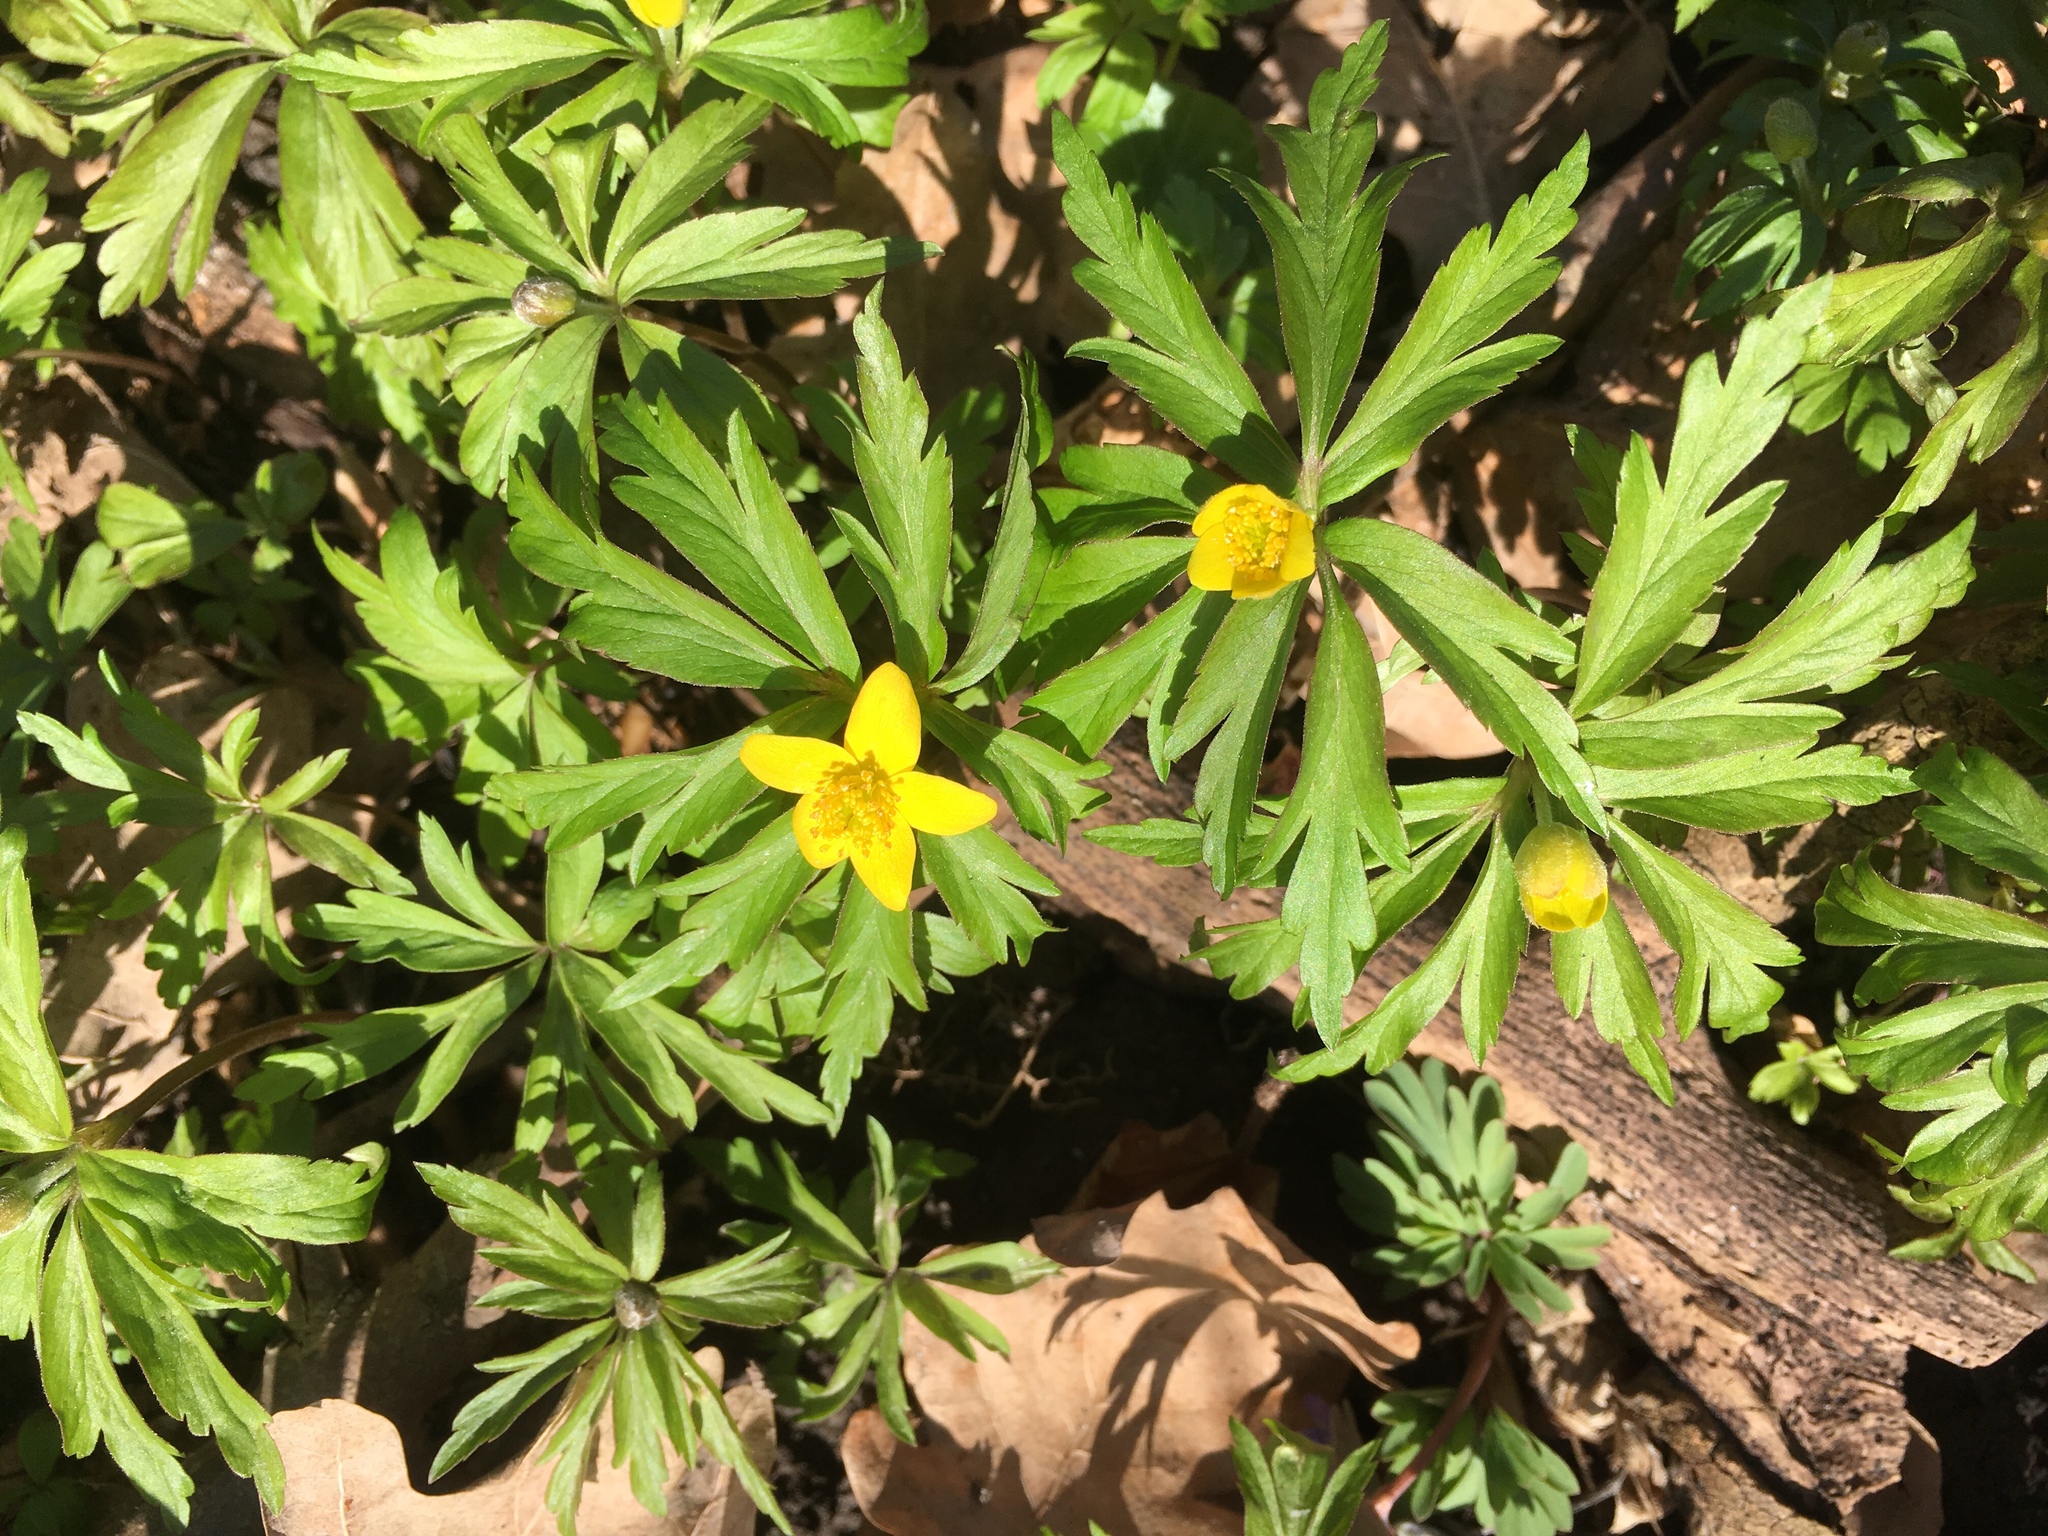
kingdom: Plantae
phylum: Tracheophyta
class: Magnoliopsida
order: Ranunculales
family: Ranunculaceae
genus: Anemone
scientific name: Anemone ranunculoides
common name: Yellow anemone
